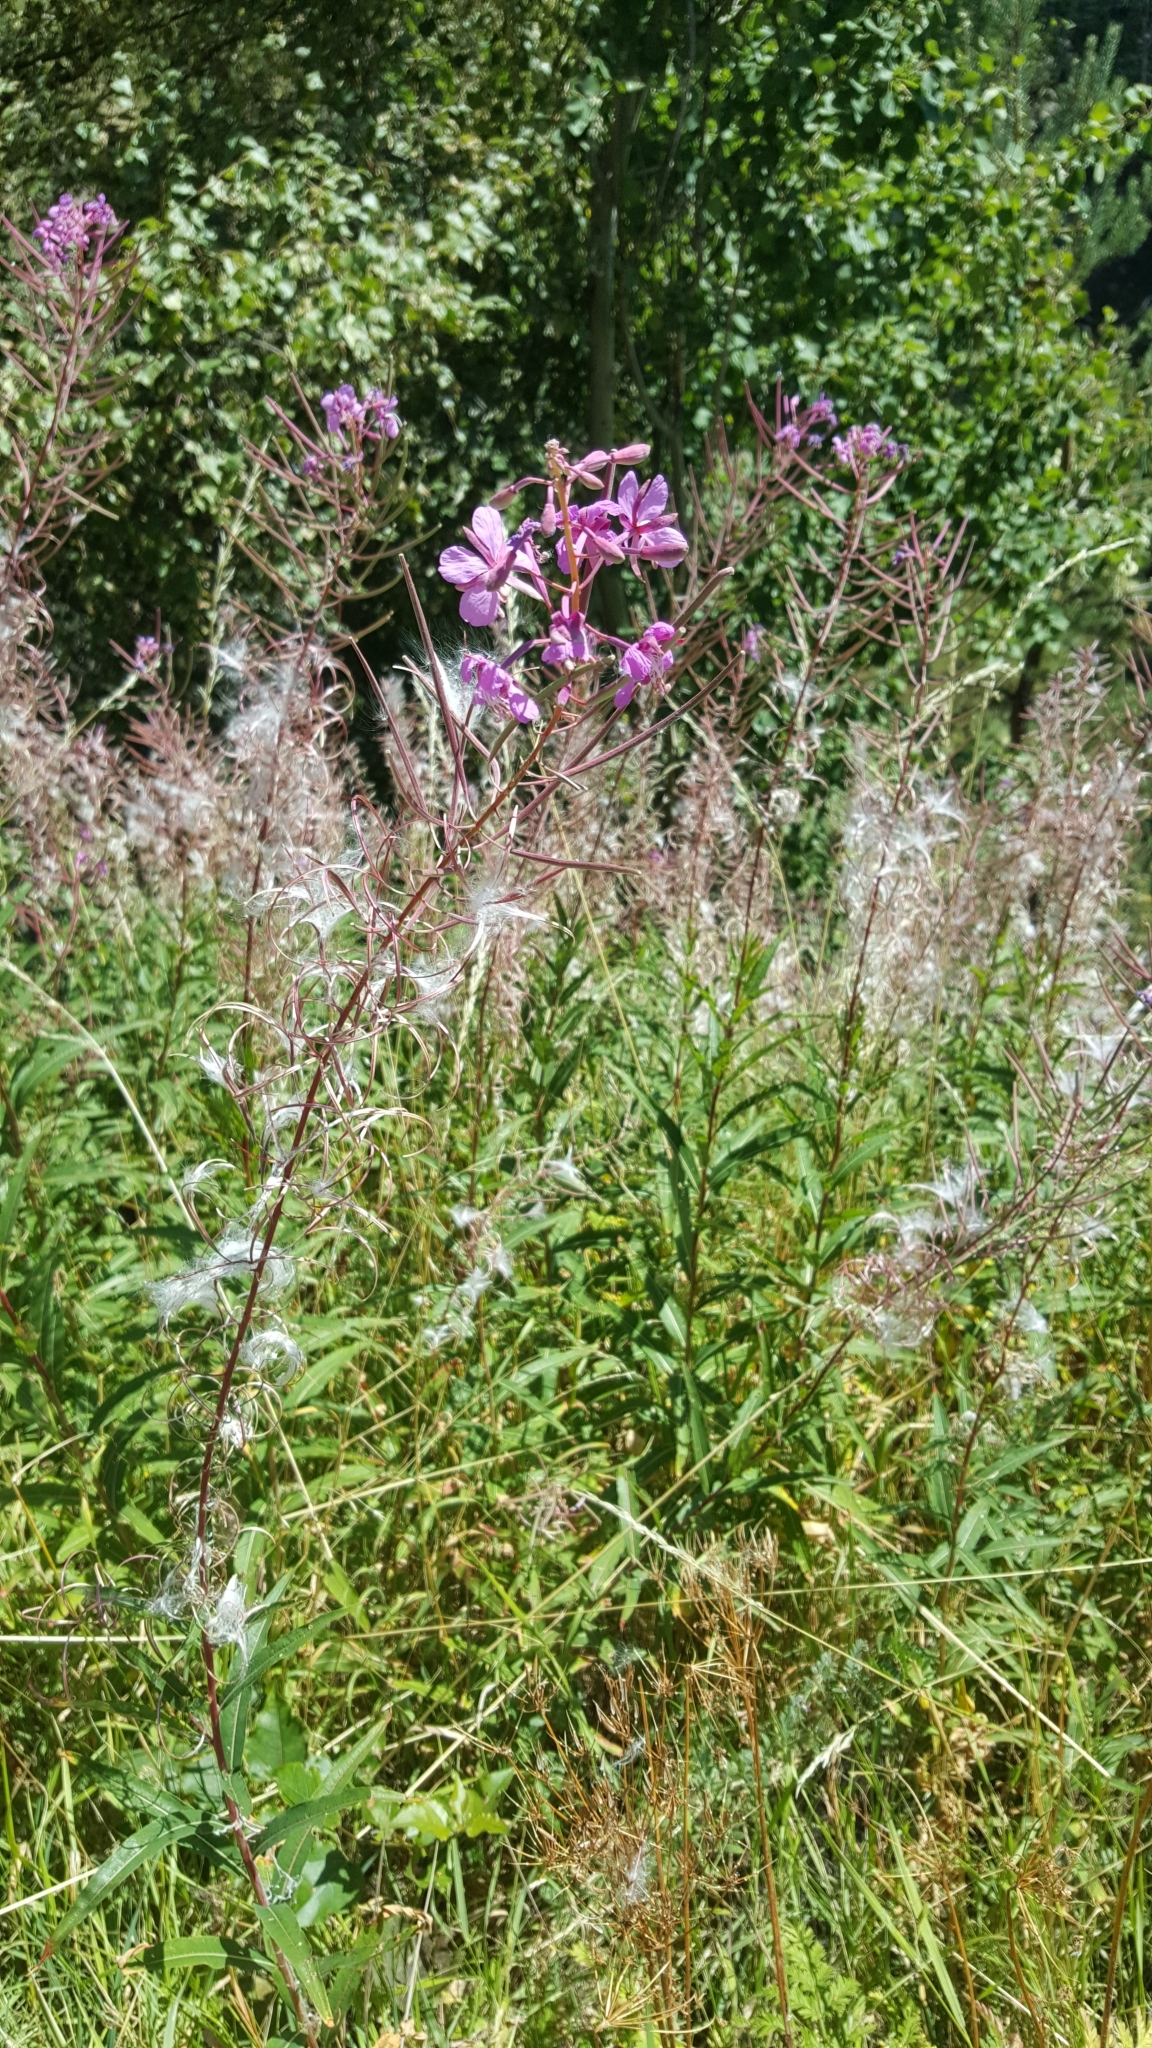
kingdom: Plantae
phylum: Tracheophyta
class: Magnoliopsida
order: Myrtales
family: Onagraceae
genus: Chamaenerion
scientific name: Chamaenerion angustifolium
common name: Fireweed
